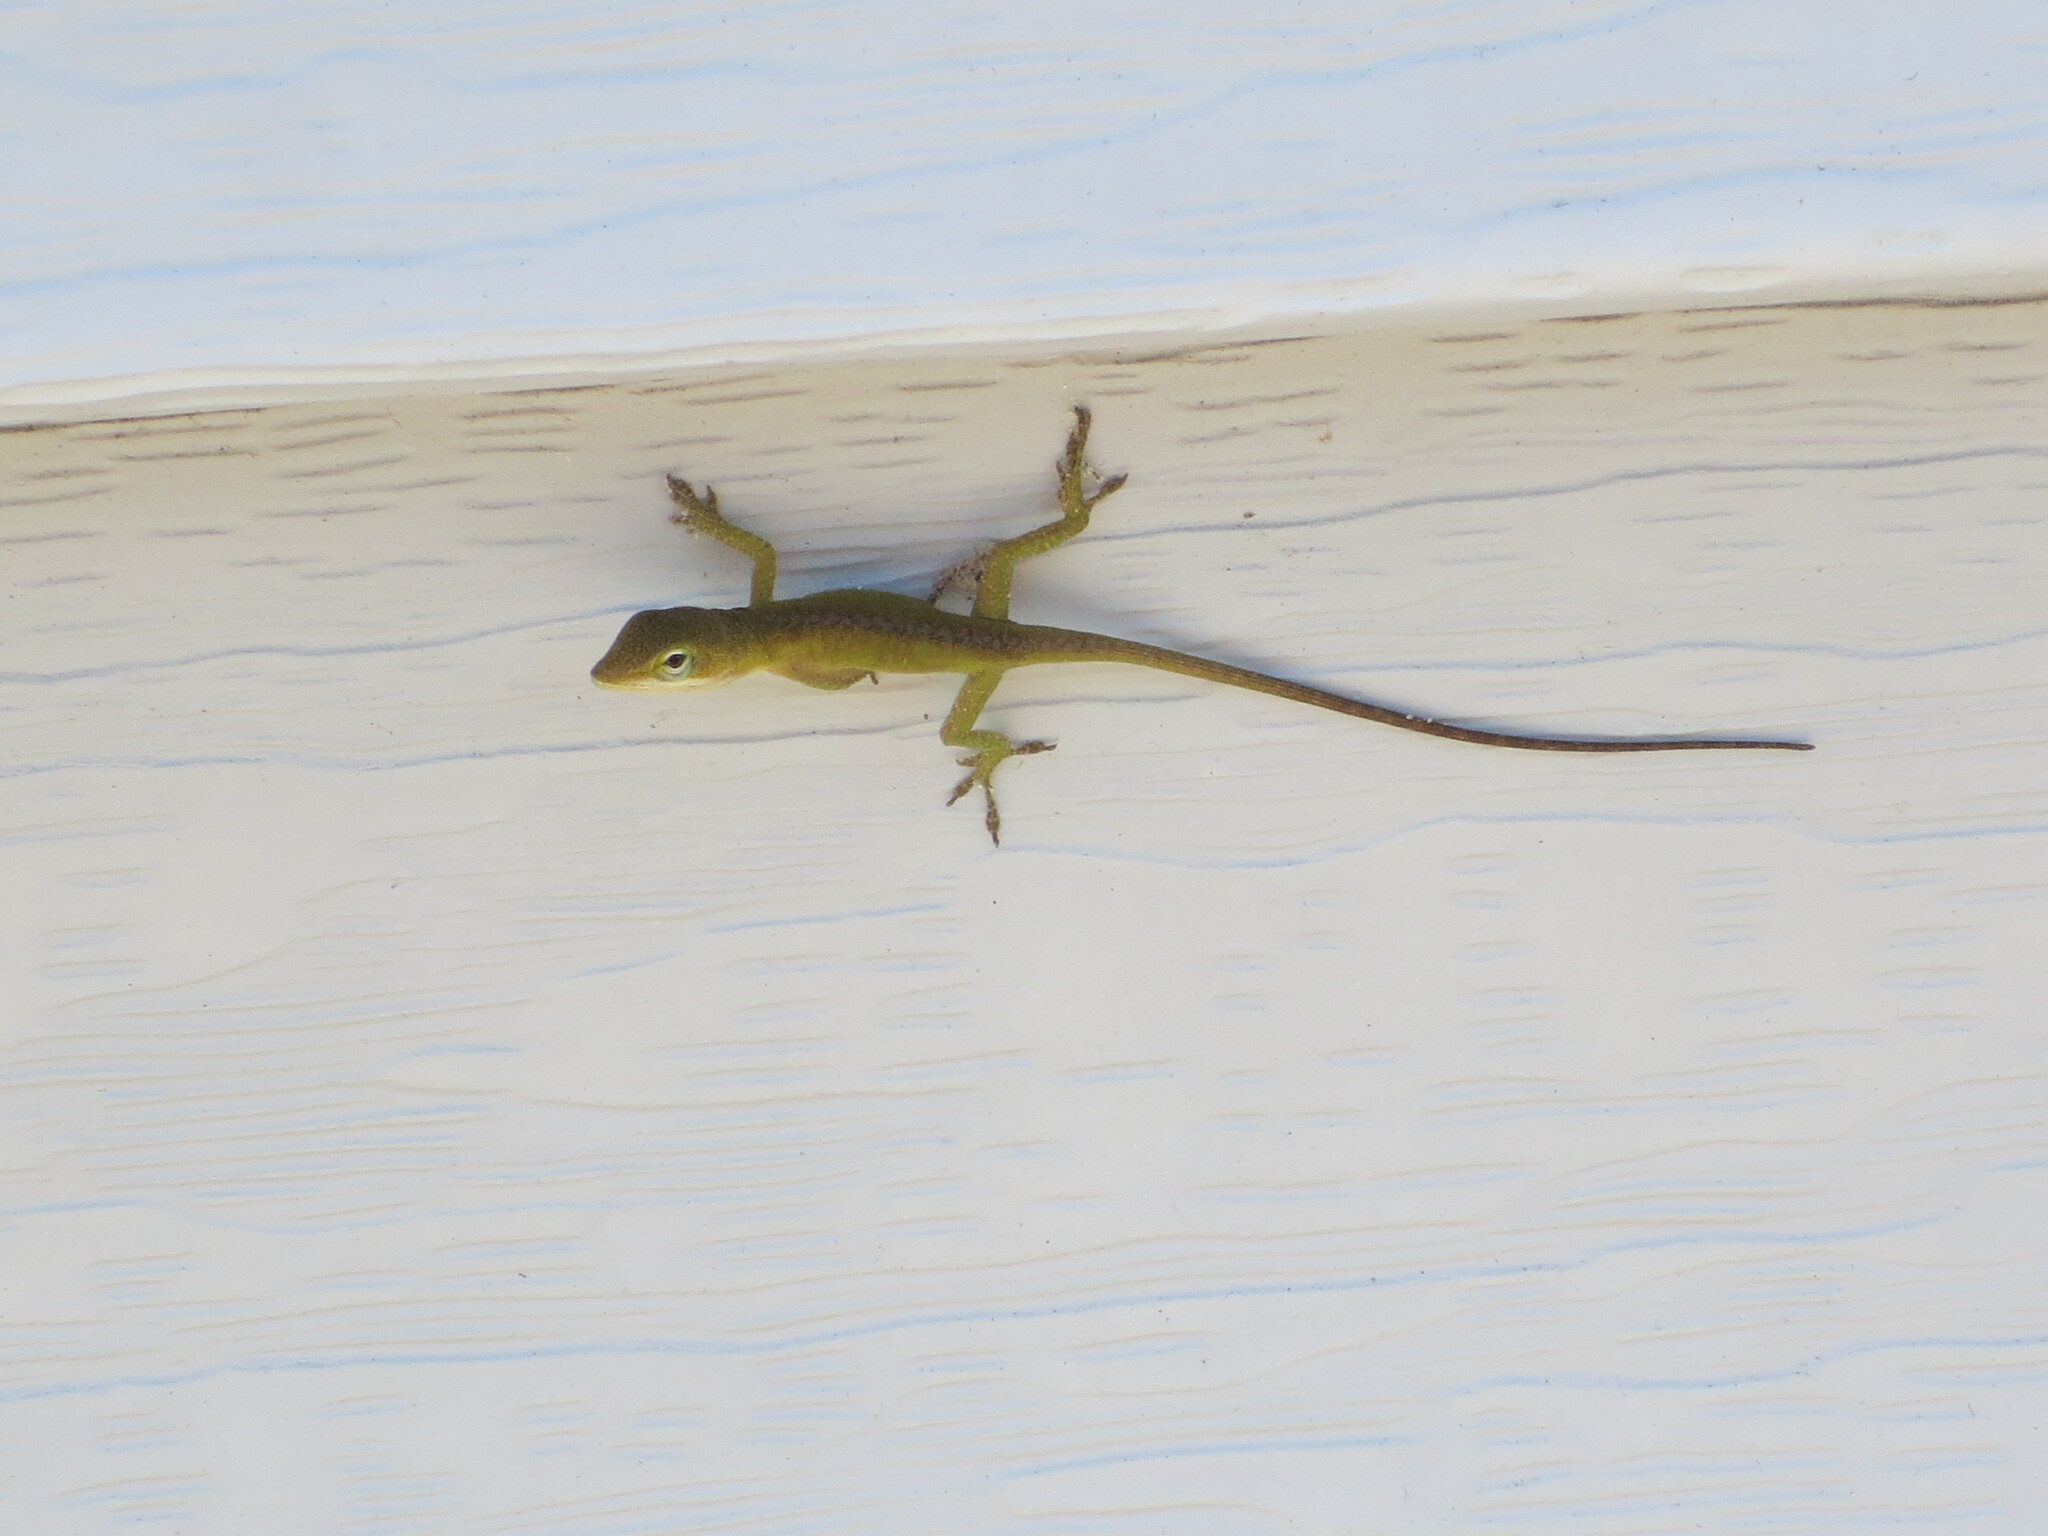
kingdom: Animalia
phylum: Chordata
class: Squamata
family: Dactyloidae
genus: Anolis
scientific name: Anolis carolinensis
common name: Green anole
